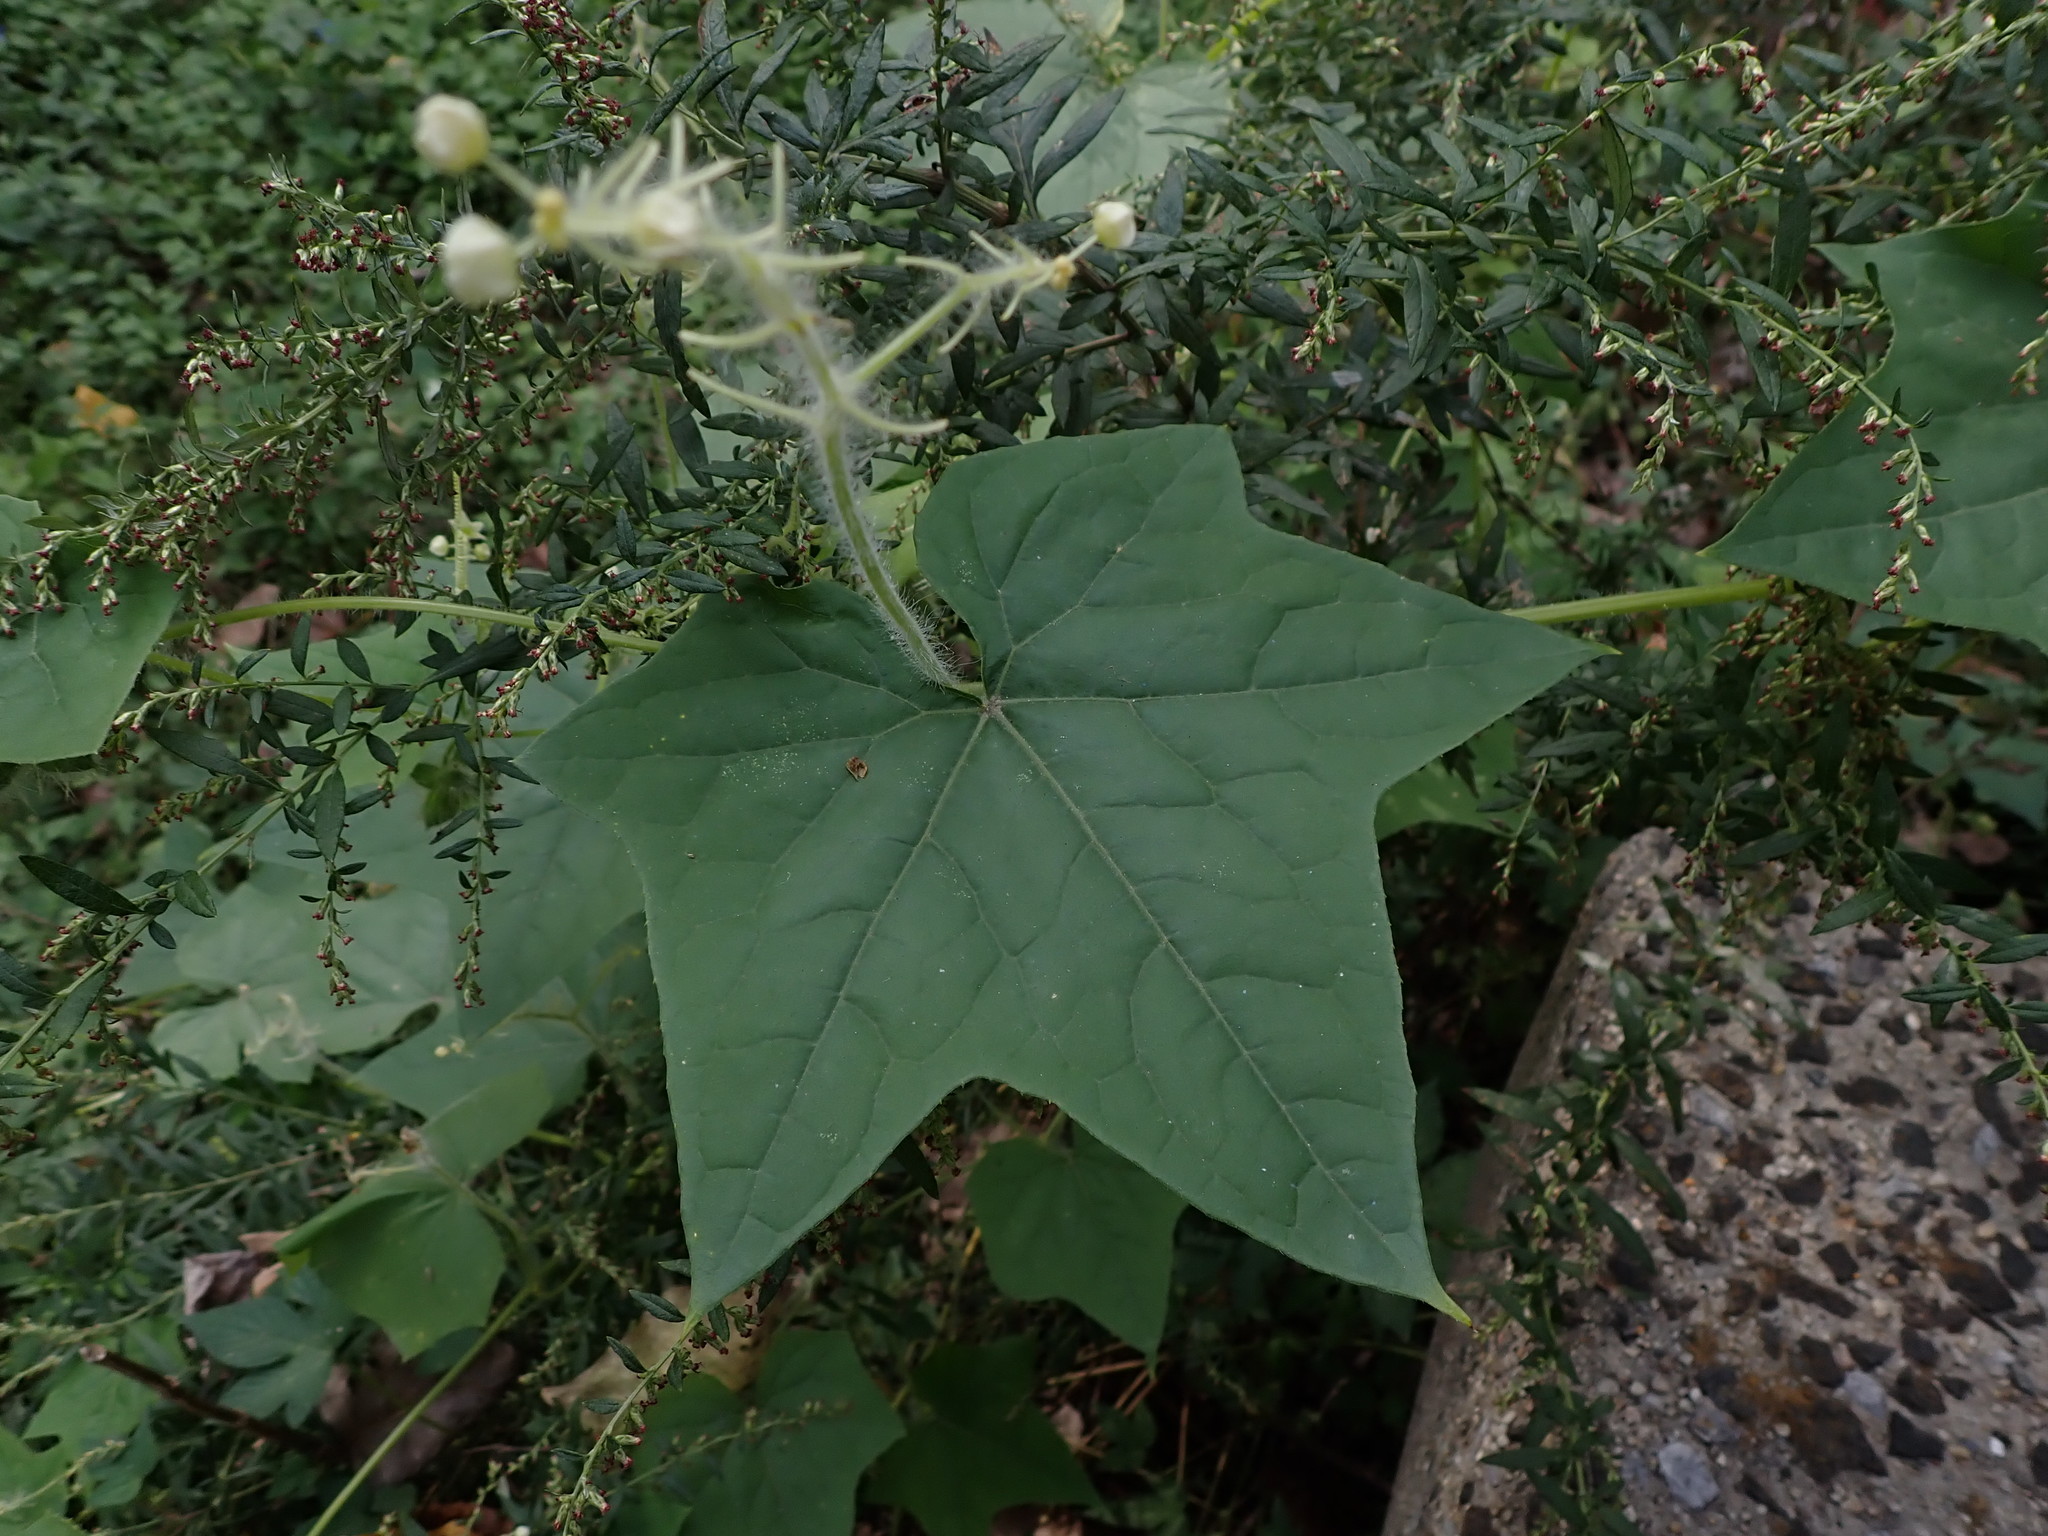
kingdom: Plantae
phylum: Tracheophyta
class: Magnoliopsida
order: Cucurbitales
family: Cucurbitaceae
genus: Sicyos
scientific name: Sicyos angulatus
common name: Angled burr cucumber
